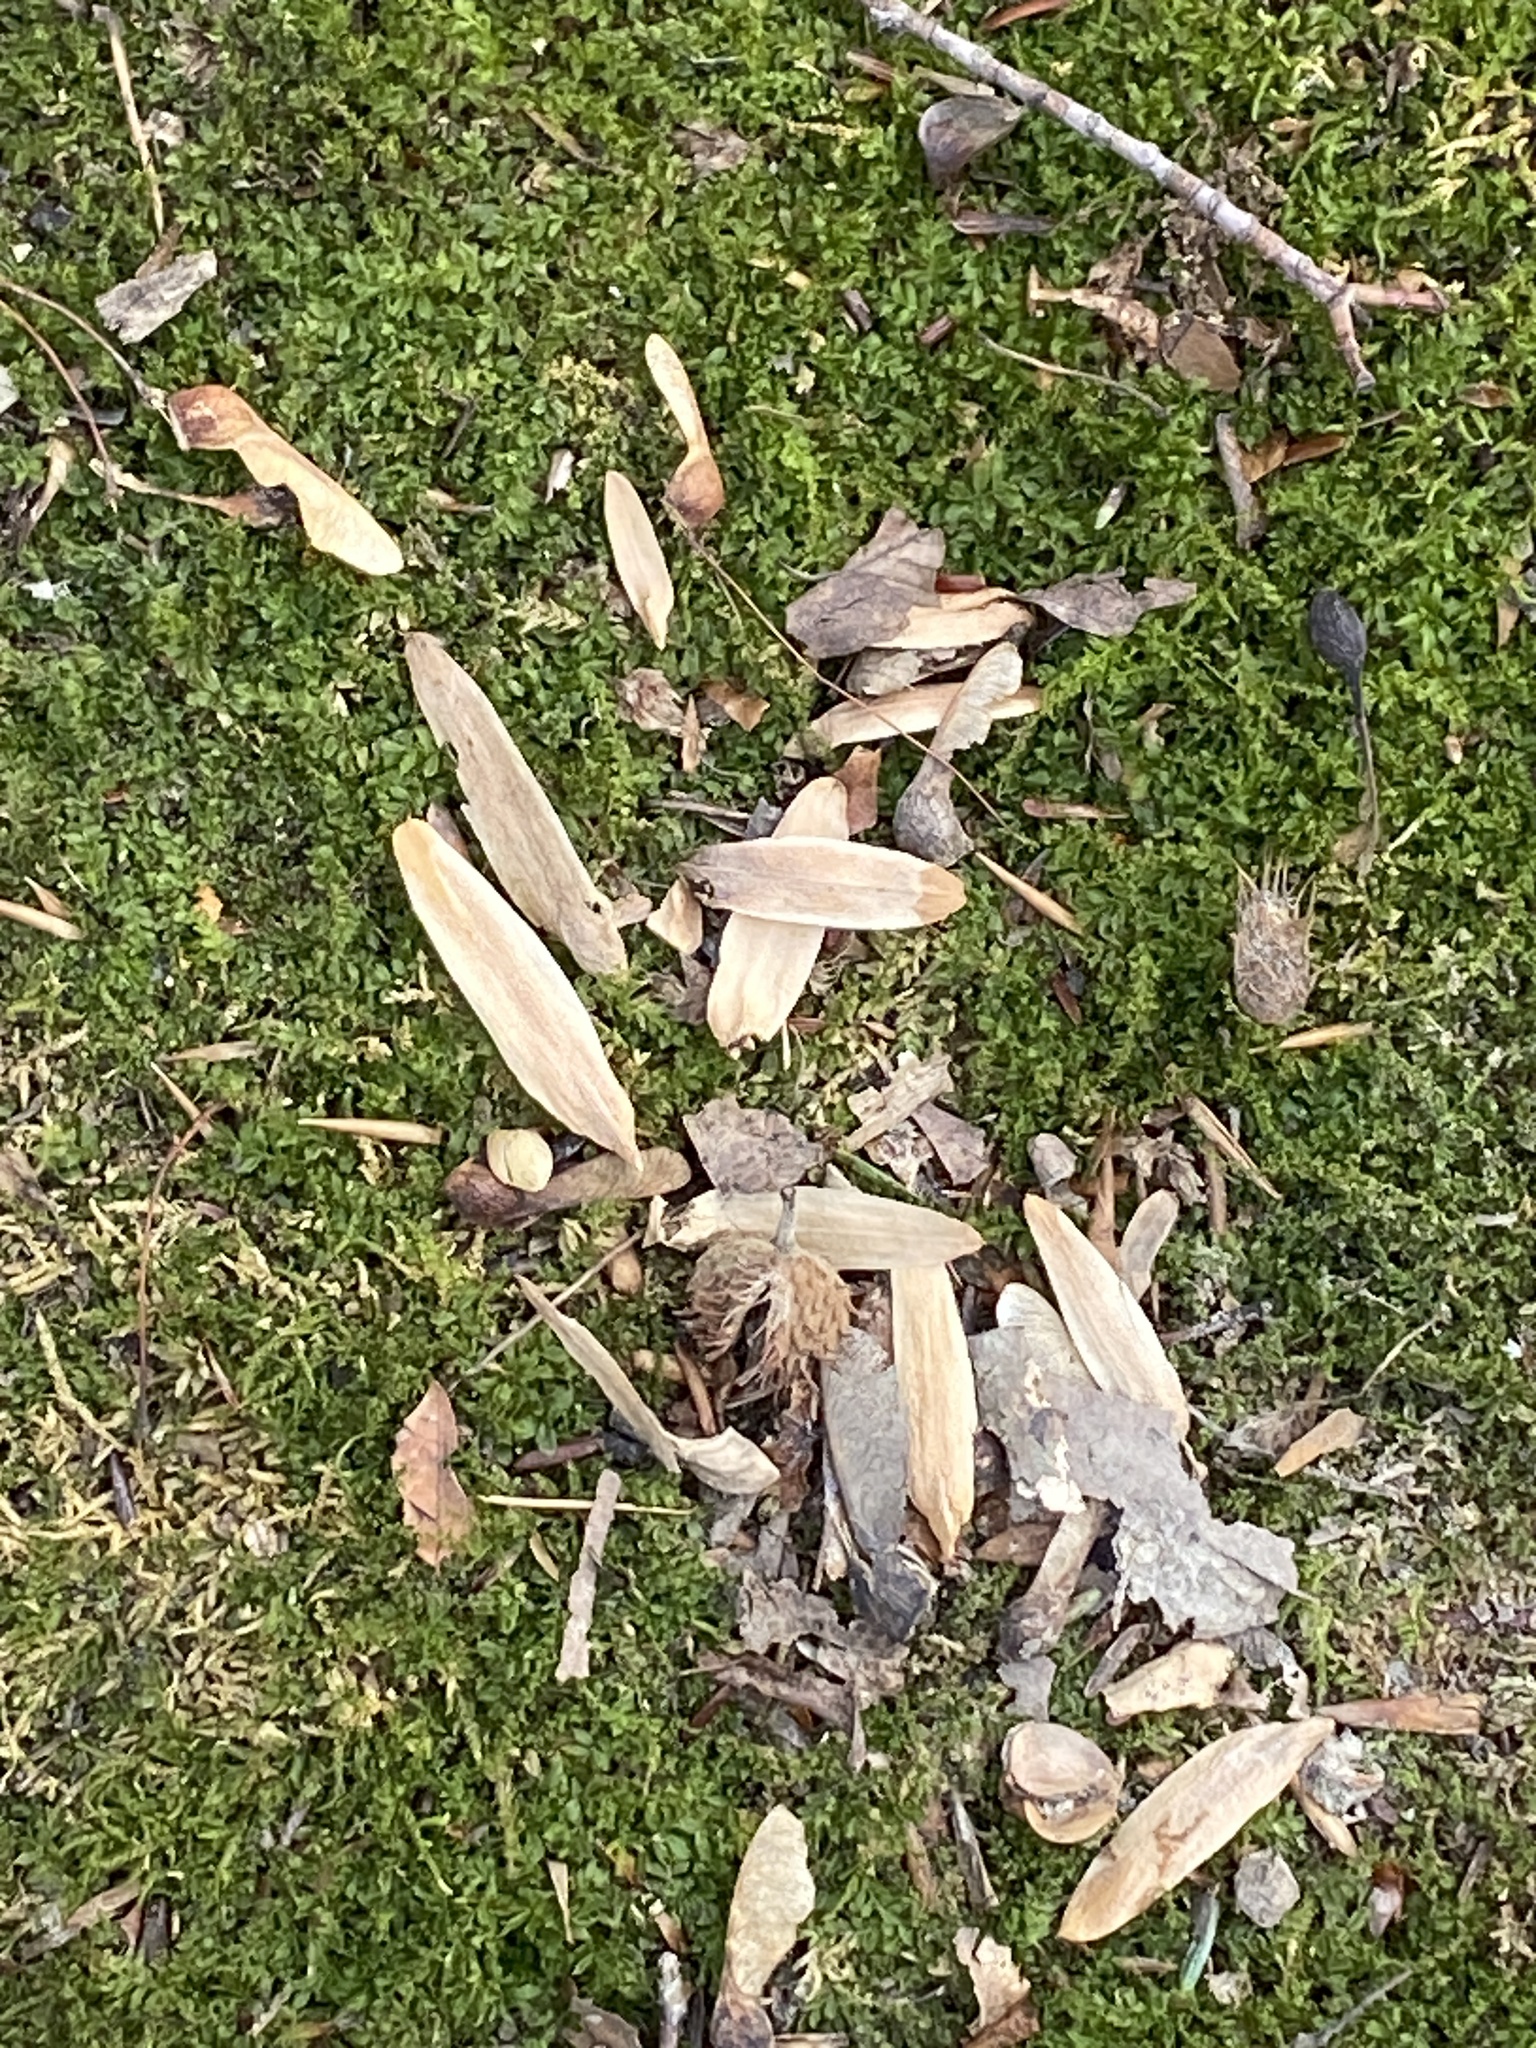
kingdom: Plantae
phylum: Tracheophyta
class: Magnoliopsida
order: Magnoliales
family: Magnoliaceae
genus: Liriodendron
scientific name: Liriodendron tulipifera
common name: Tulip tree
